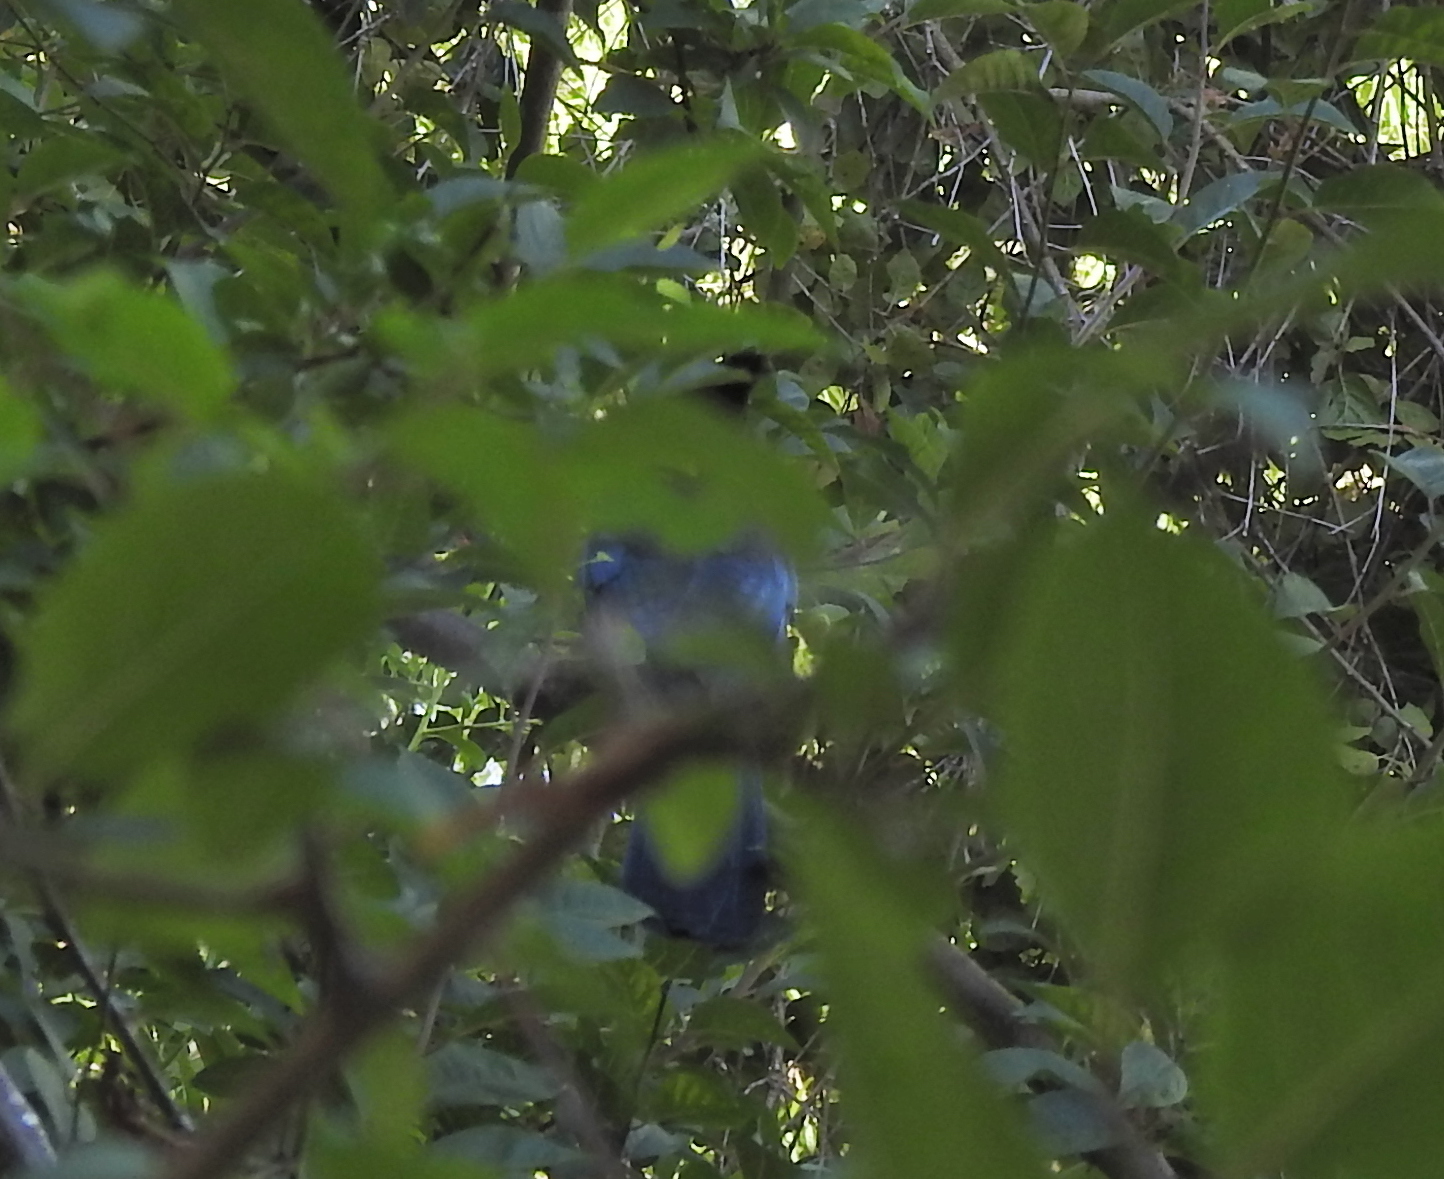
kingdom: Animalia
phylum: Chordata
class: Aves
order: Passeriformes
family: Corvidae
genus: Cyanocitta
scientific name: Cyanocitta stelleri
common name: Steller's jay
